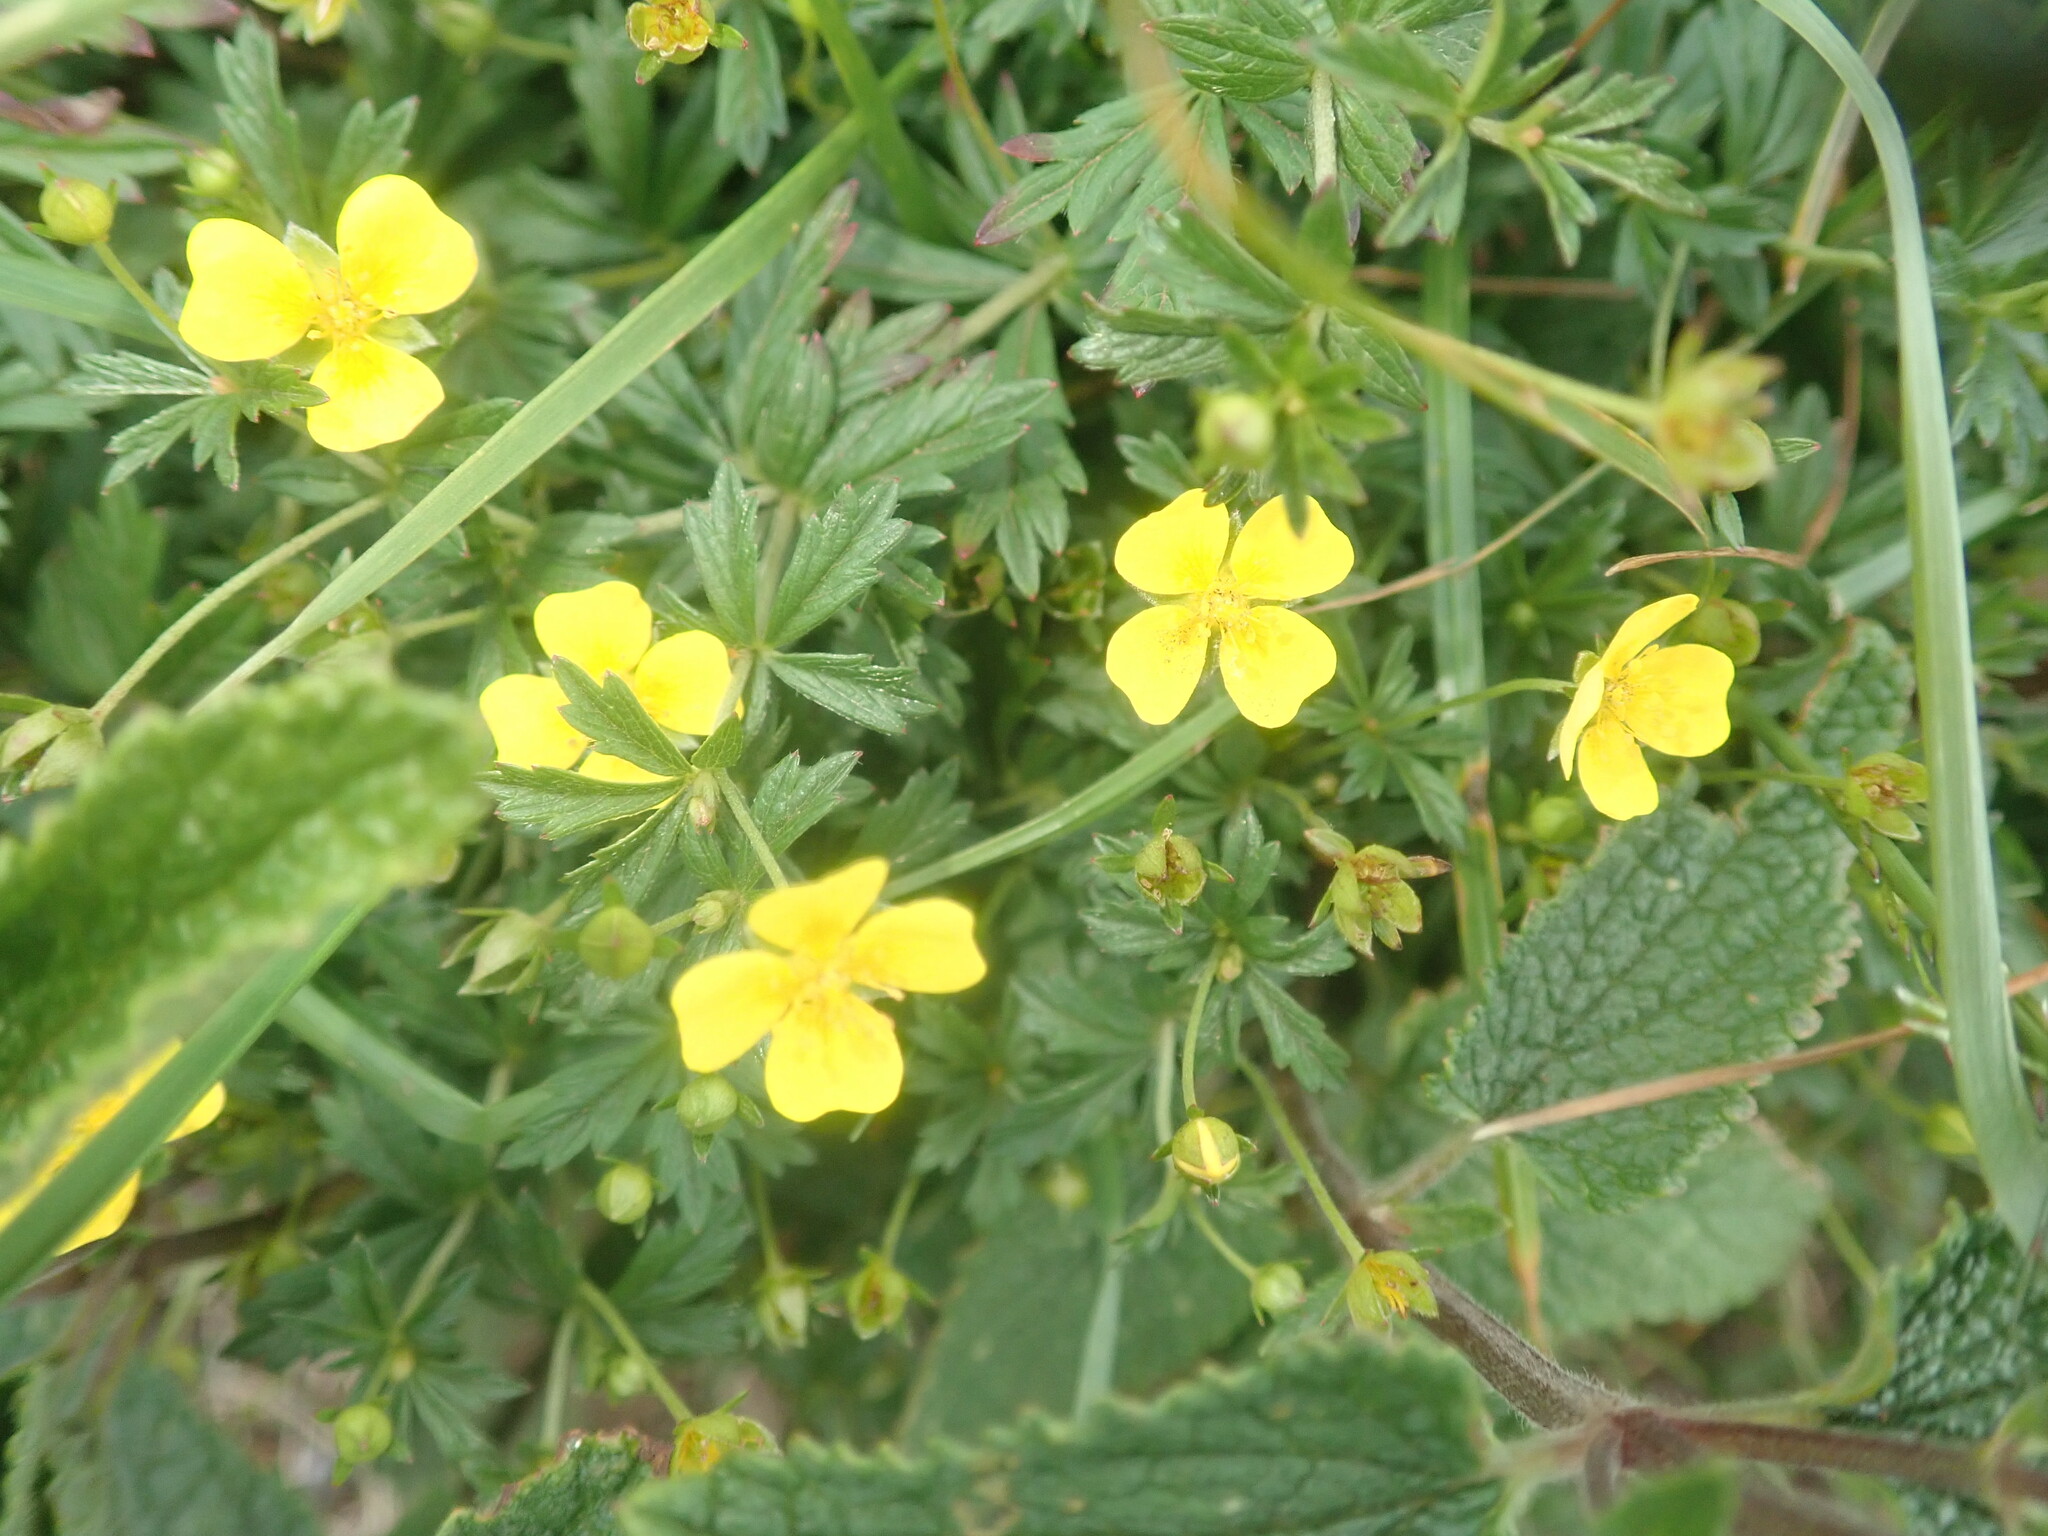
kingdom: Plantae
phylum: Tracheophyta
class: Magnoliopsida
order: Rosales
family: Rosaceae
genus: Potentilla
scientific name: Potentilla erecta
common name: Tormentil
